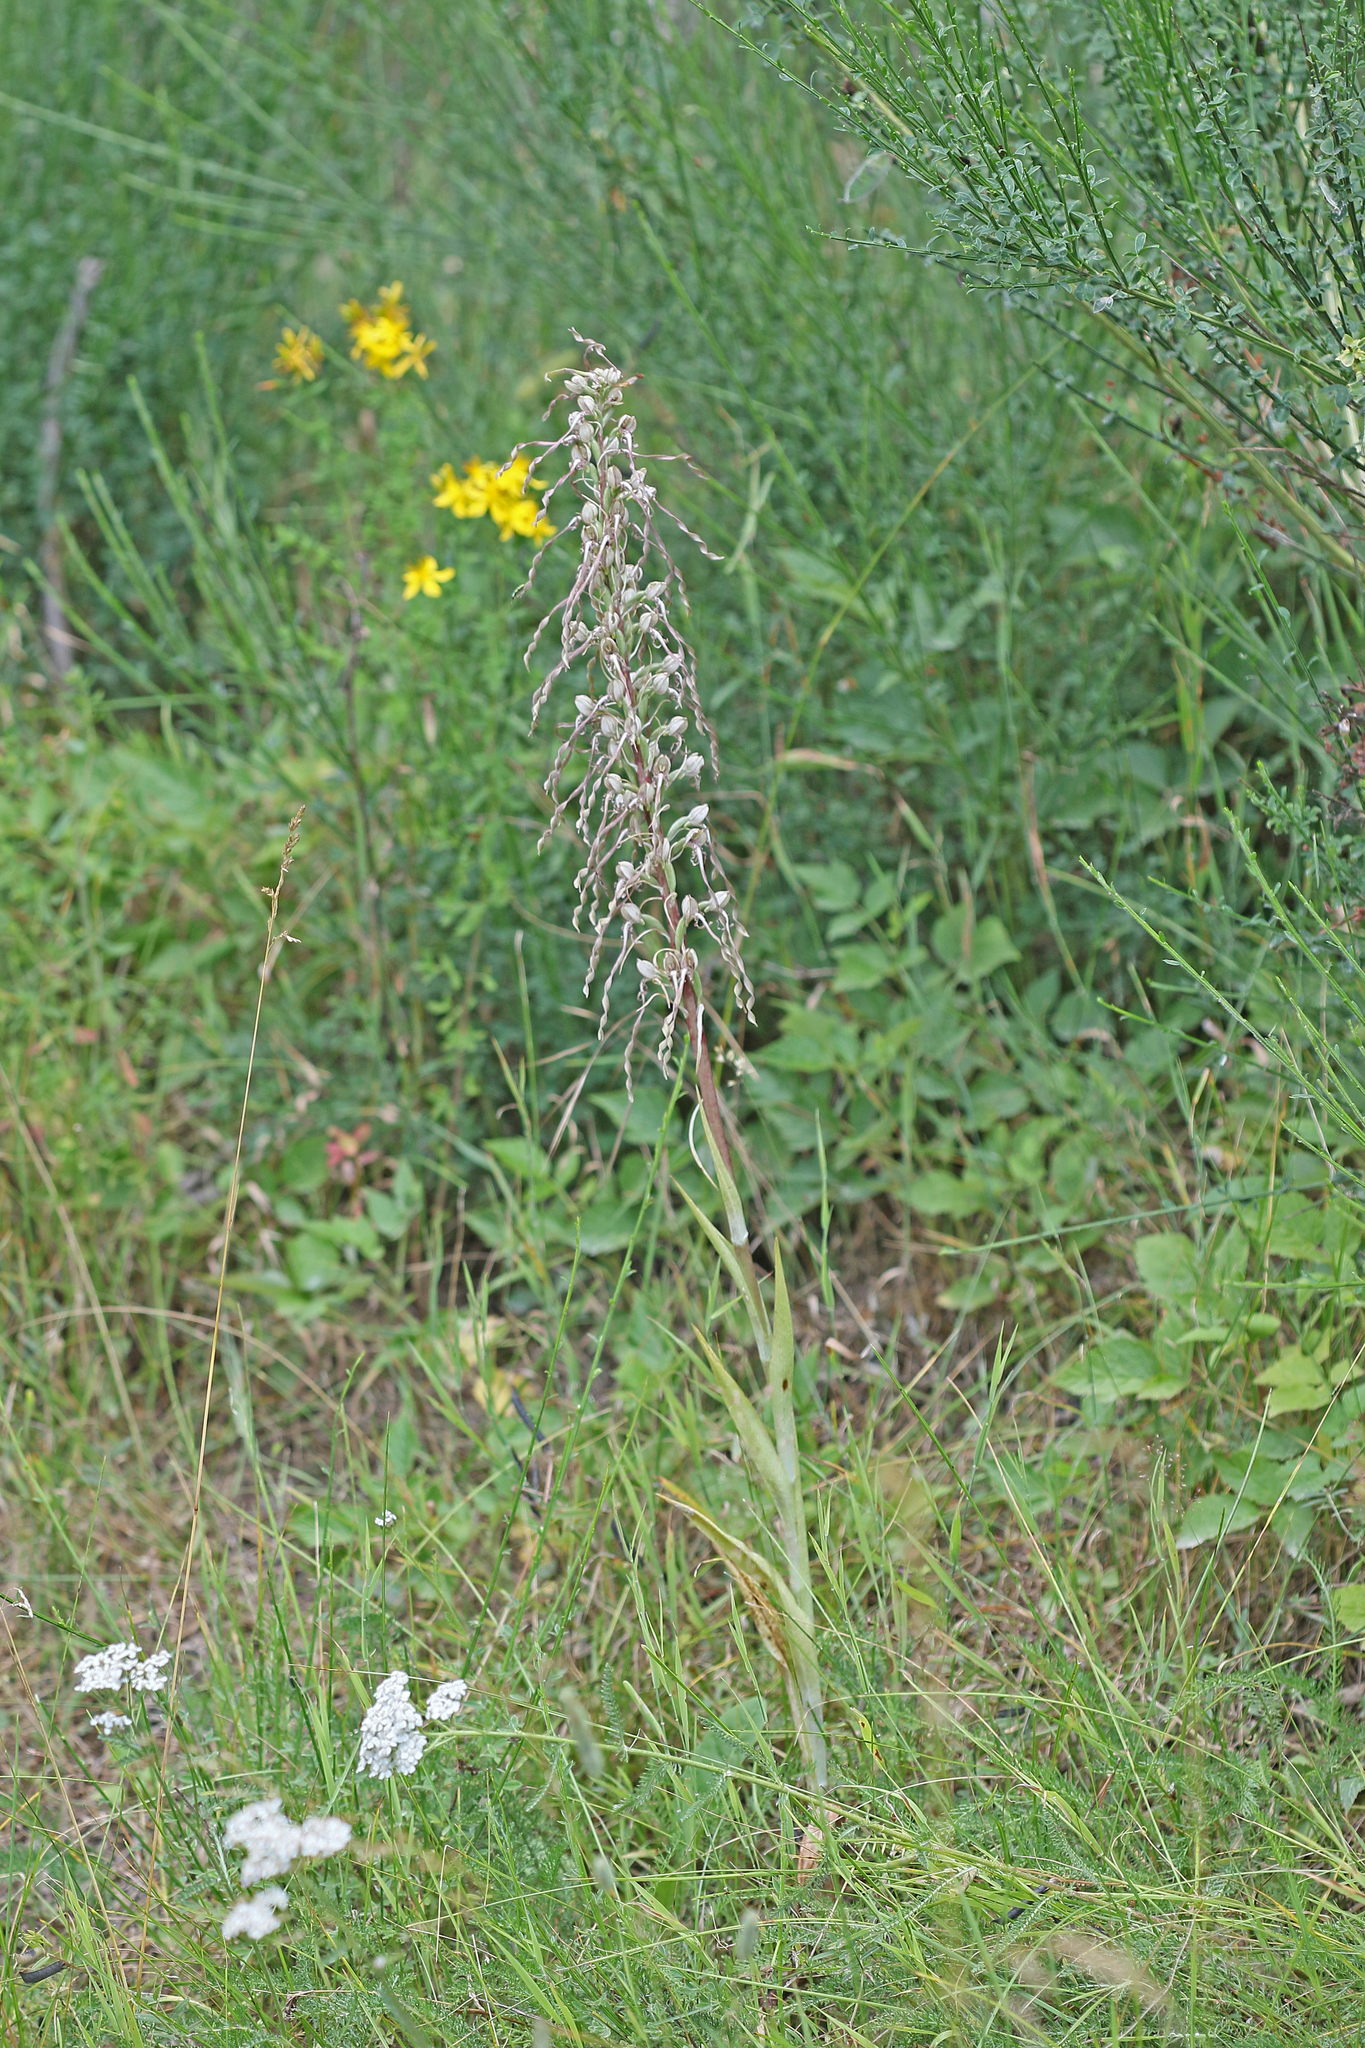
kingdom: Plantae
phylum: Tracheophyta
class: Liliopsida
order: Asparagales
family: Orchidaceae
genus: Himantoglossum
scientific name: Himantoglossum hircinum
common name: Lizard orchid
